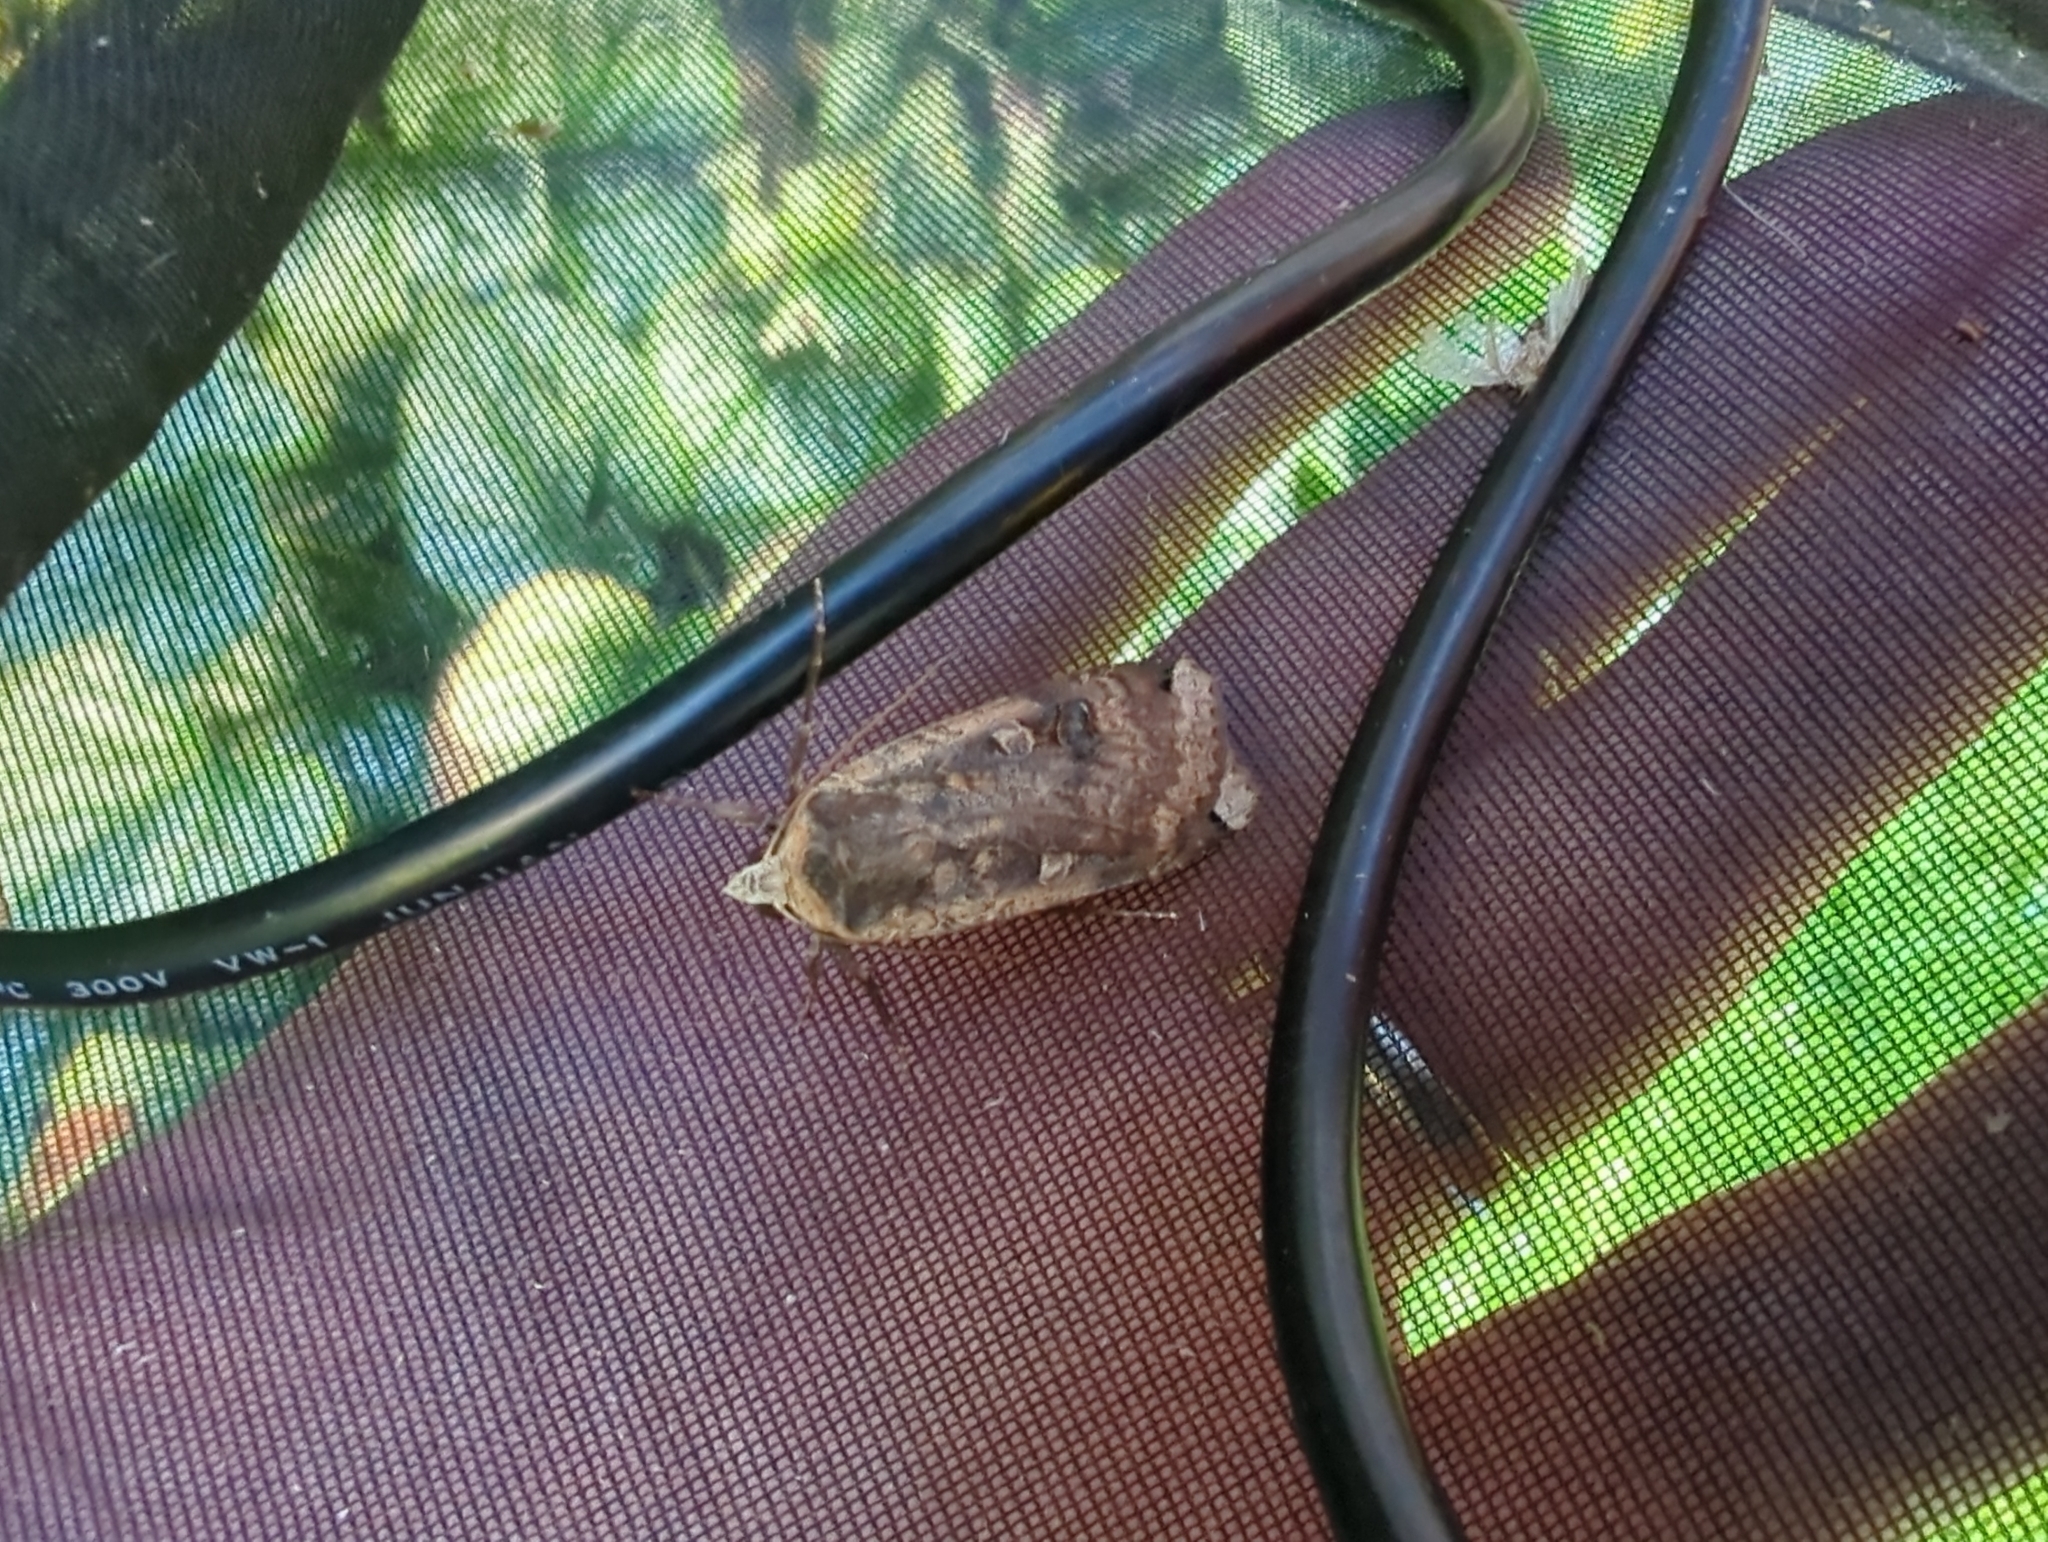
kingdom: Animalia
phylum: Arthropoda
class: Insecta
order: Lepidoptera
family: Noctuidae
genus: Noctua
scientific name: Noctua pronuba
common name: Large yellow underwing
